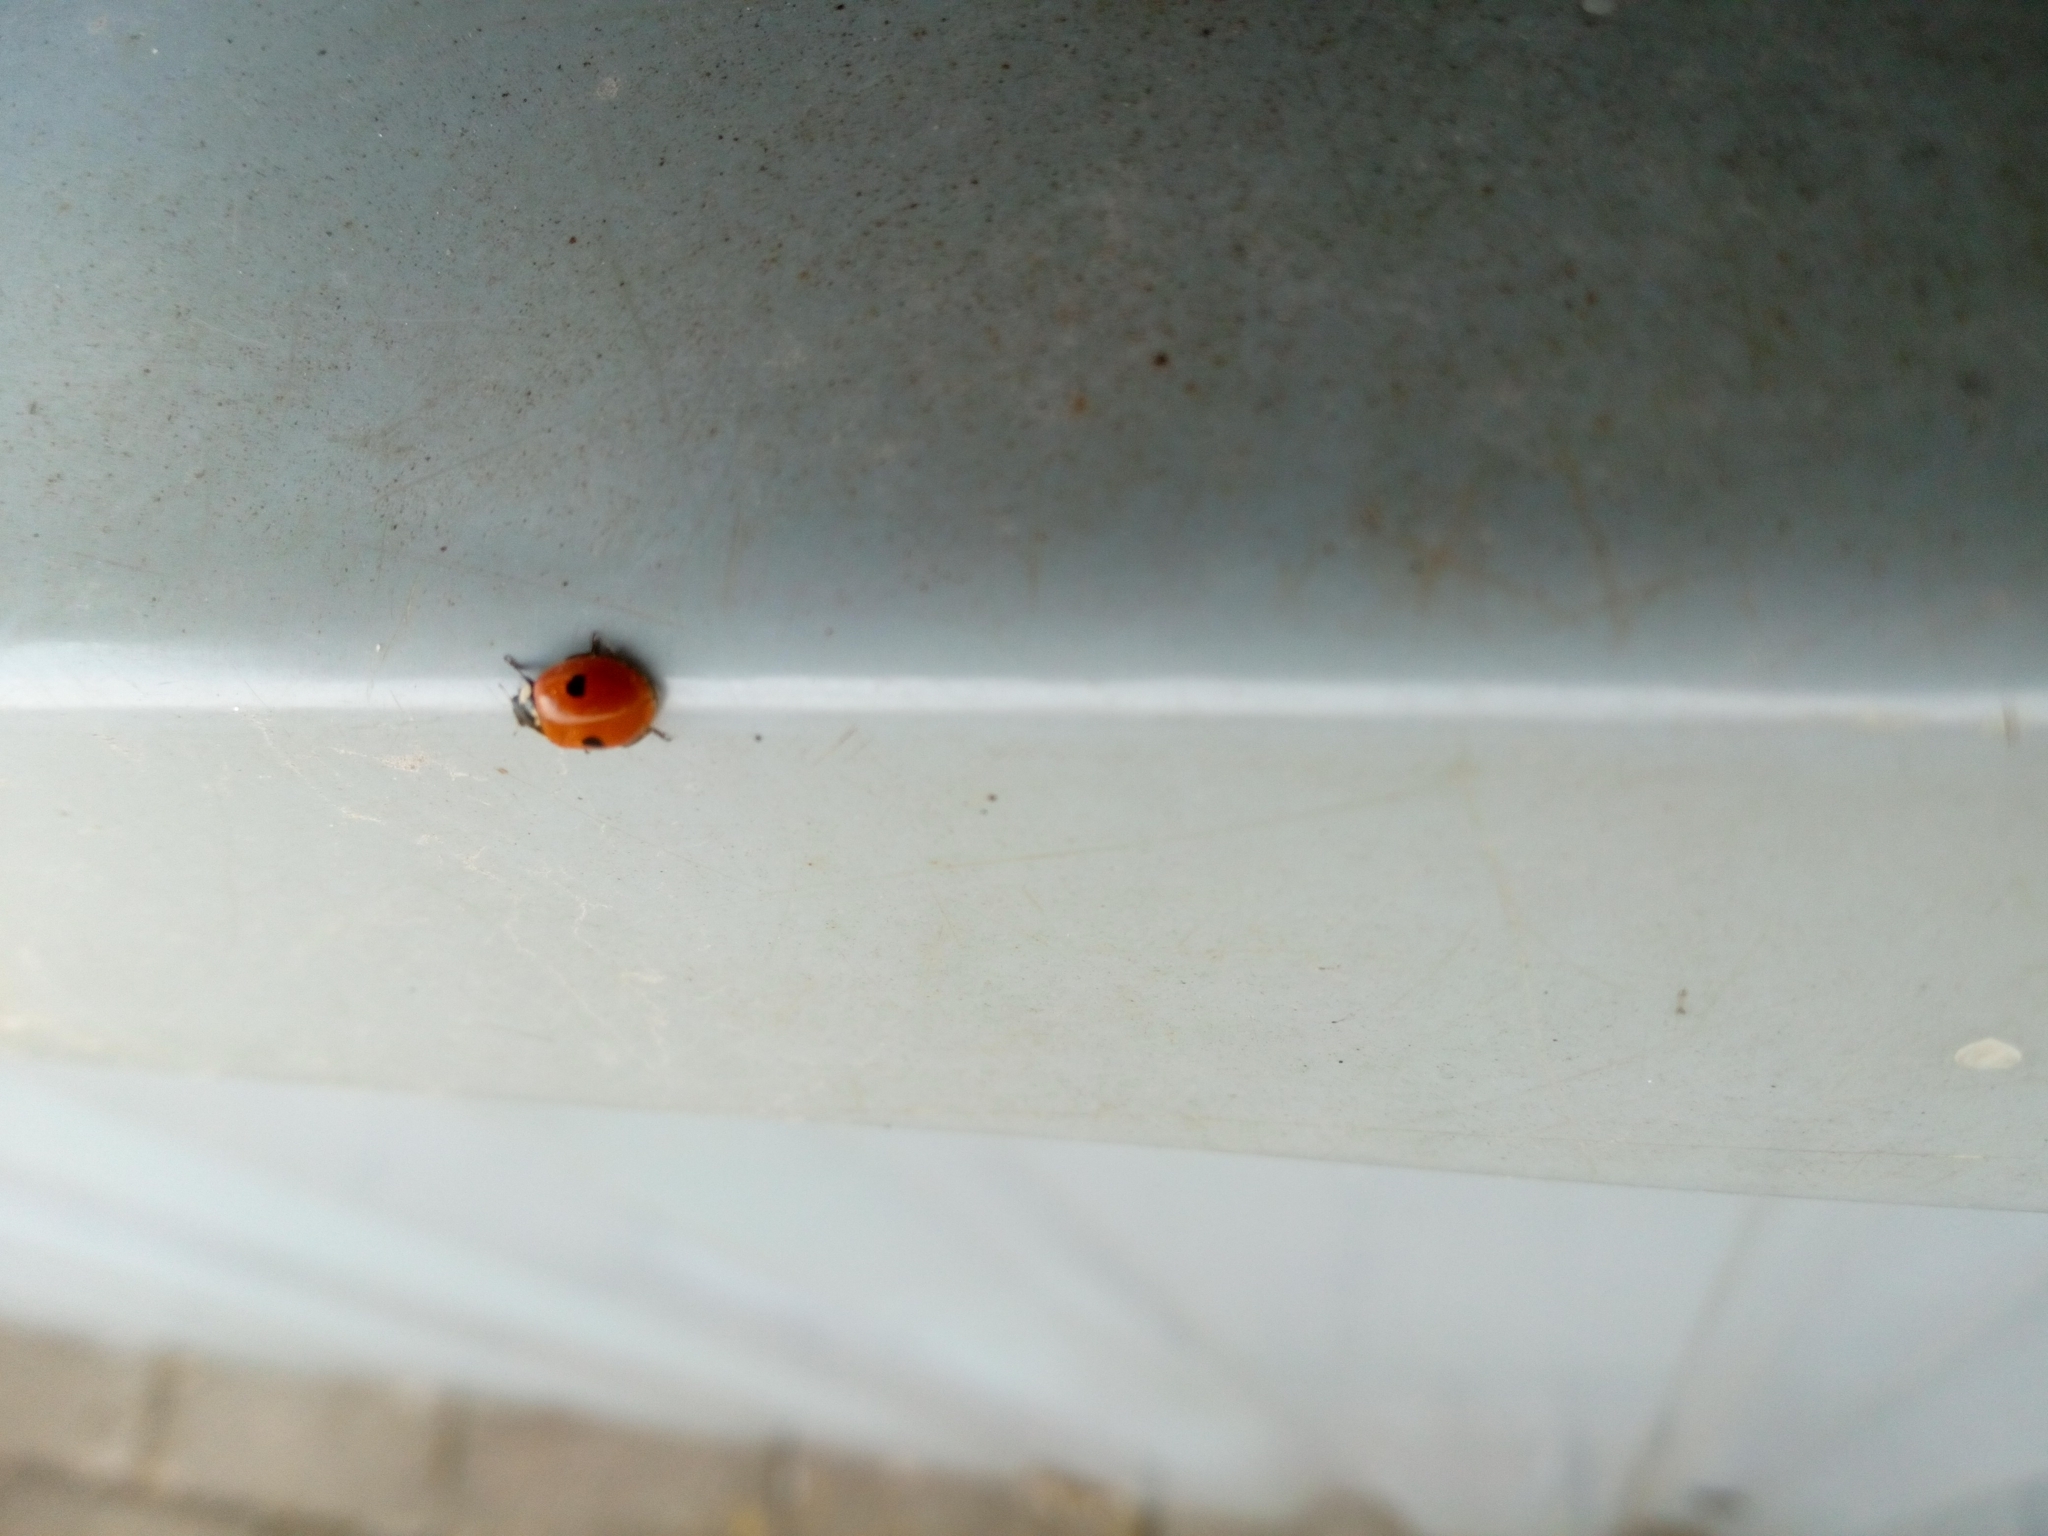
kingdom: Animalia
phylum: Arthropoda
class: Insecta
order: Coleoptera
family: Coccinellidae
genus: Adalia
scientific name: Adalia bipunctata
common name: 2-spot ladybird
